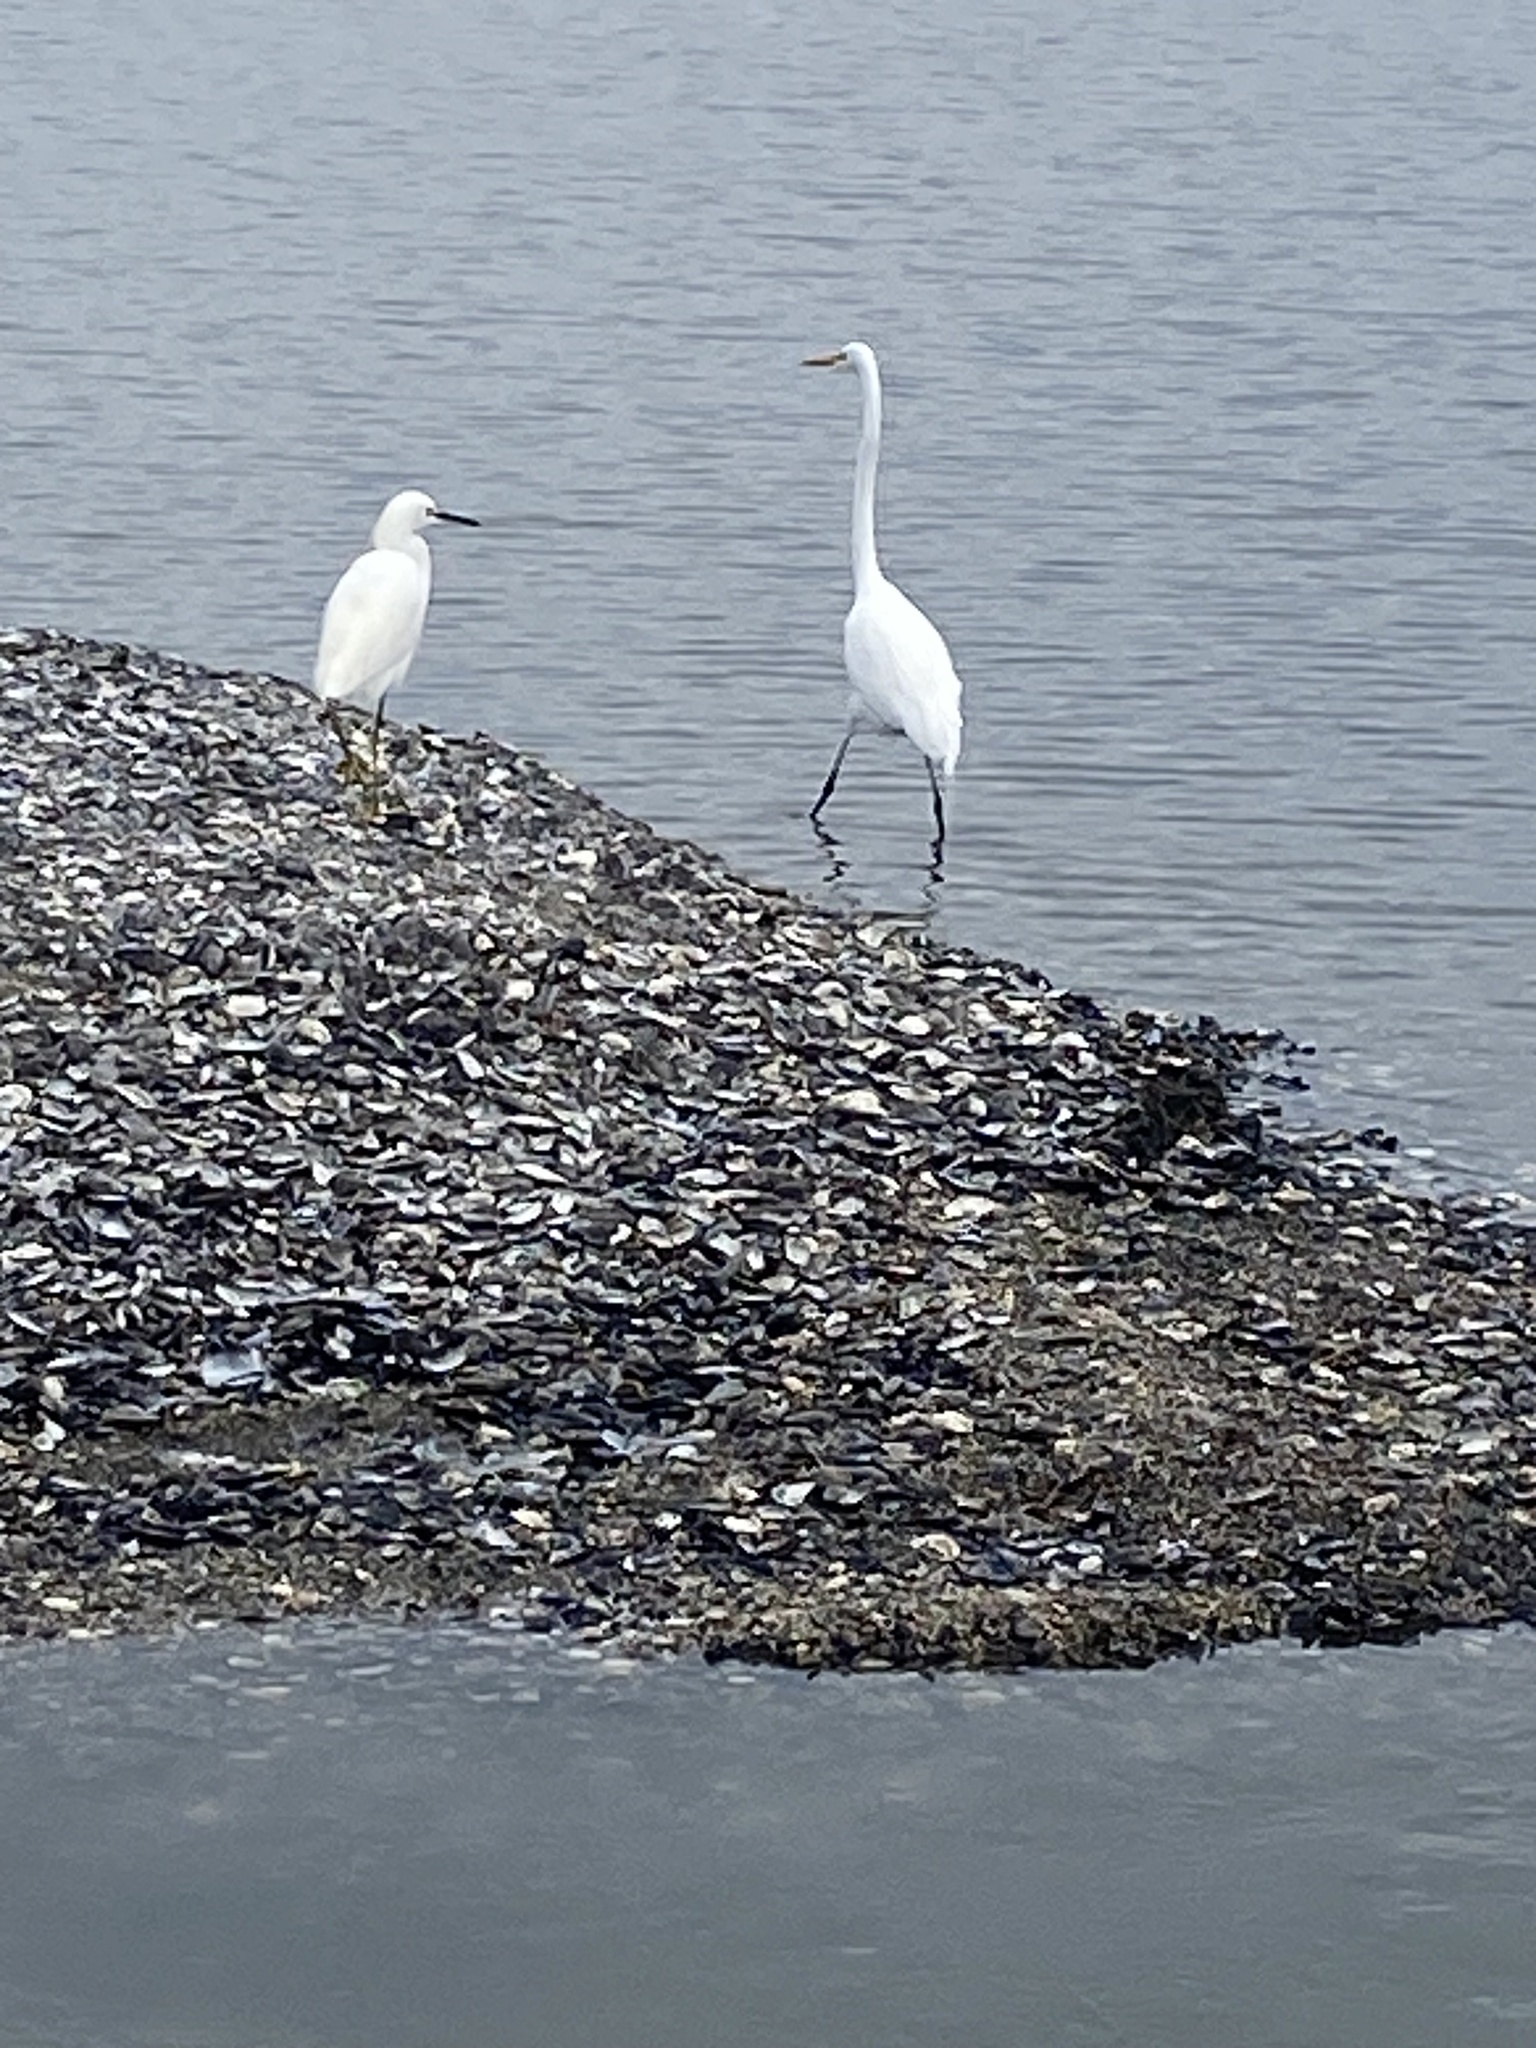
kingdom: Animalia
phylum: Chordata
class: Aves
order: Pelecaniformes
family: Ardeidae
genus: Ardea
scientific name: Ardea alba
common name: Great egret
